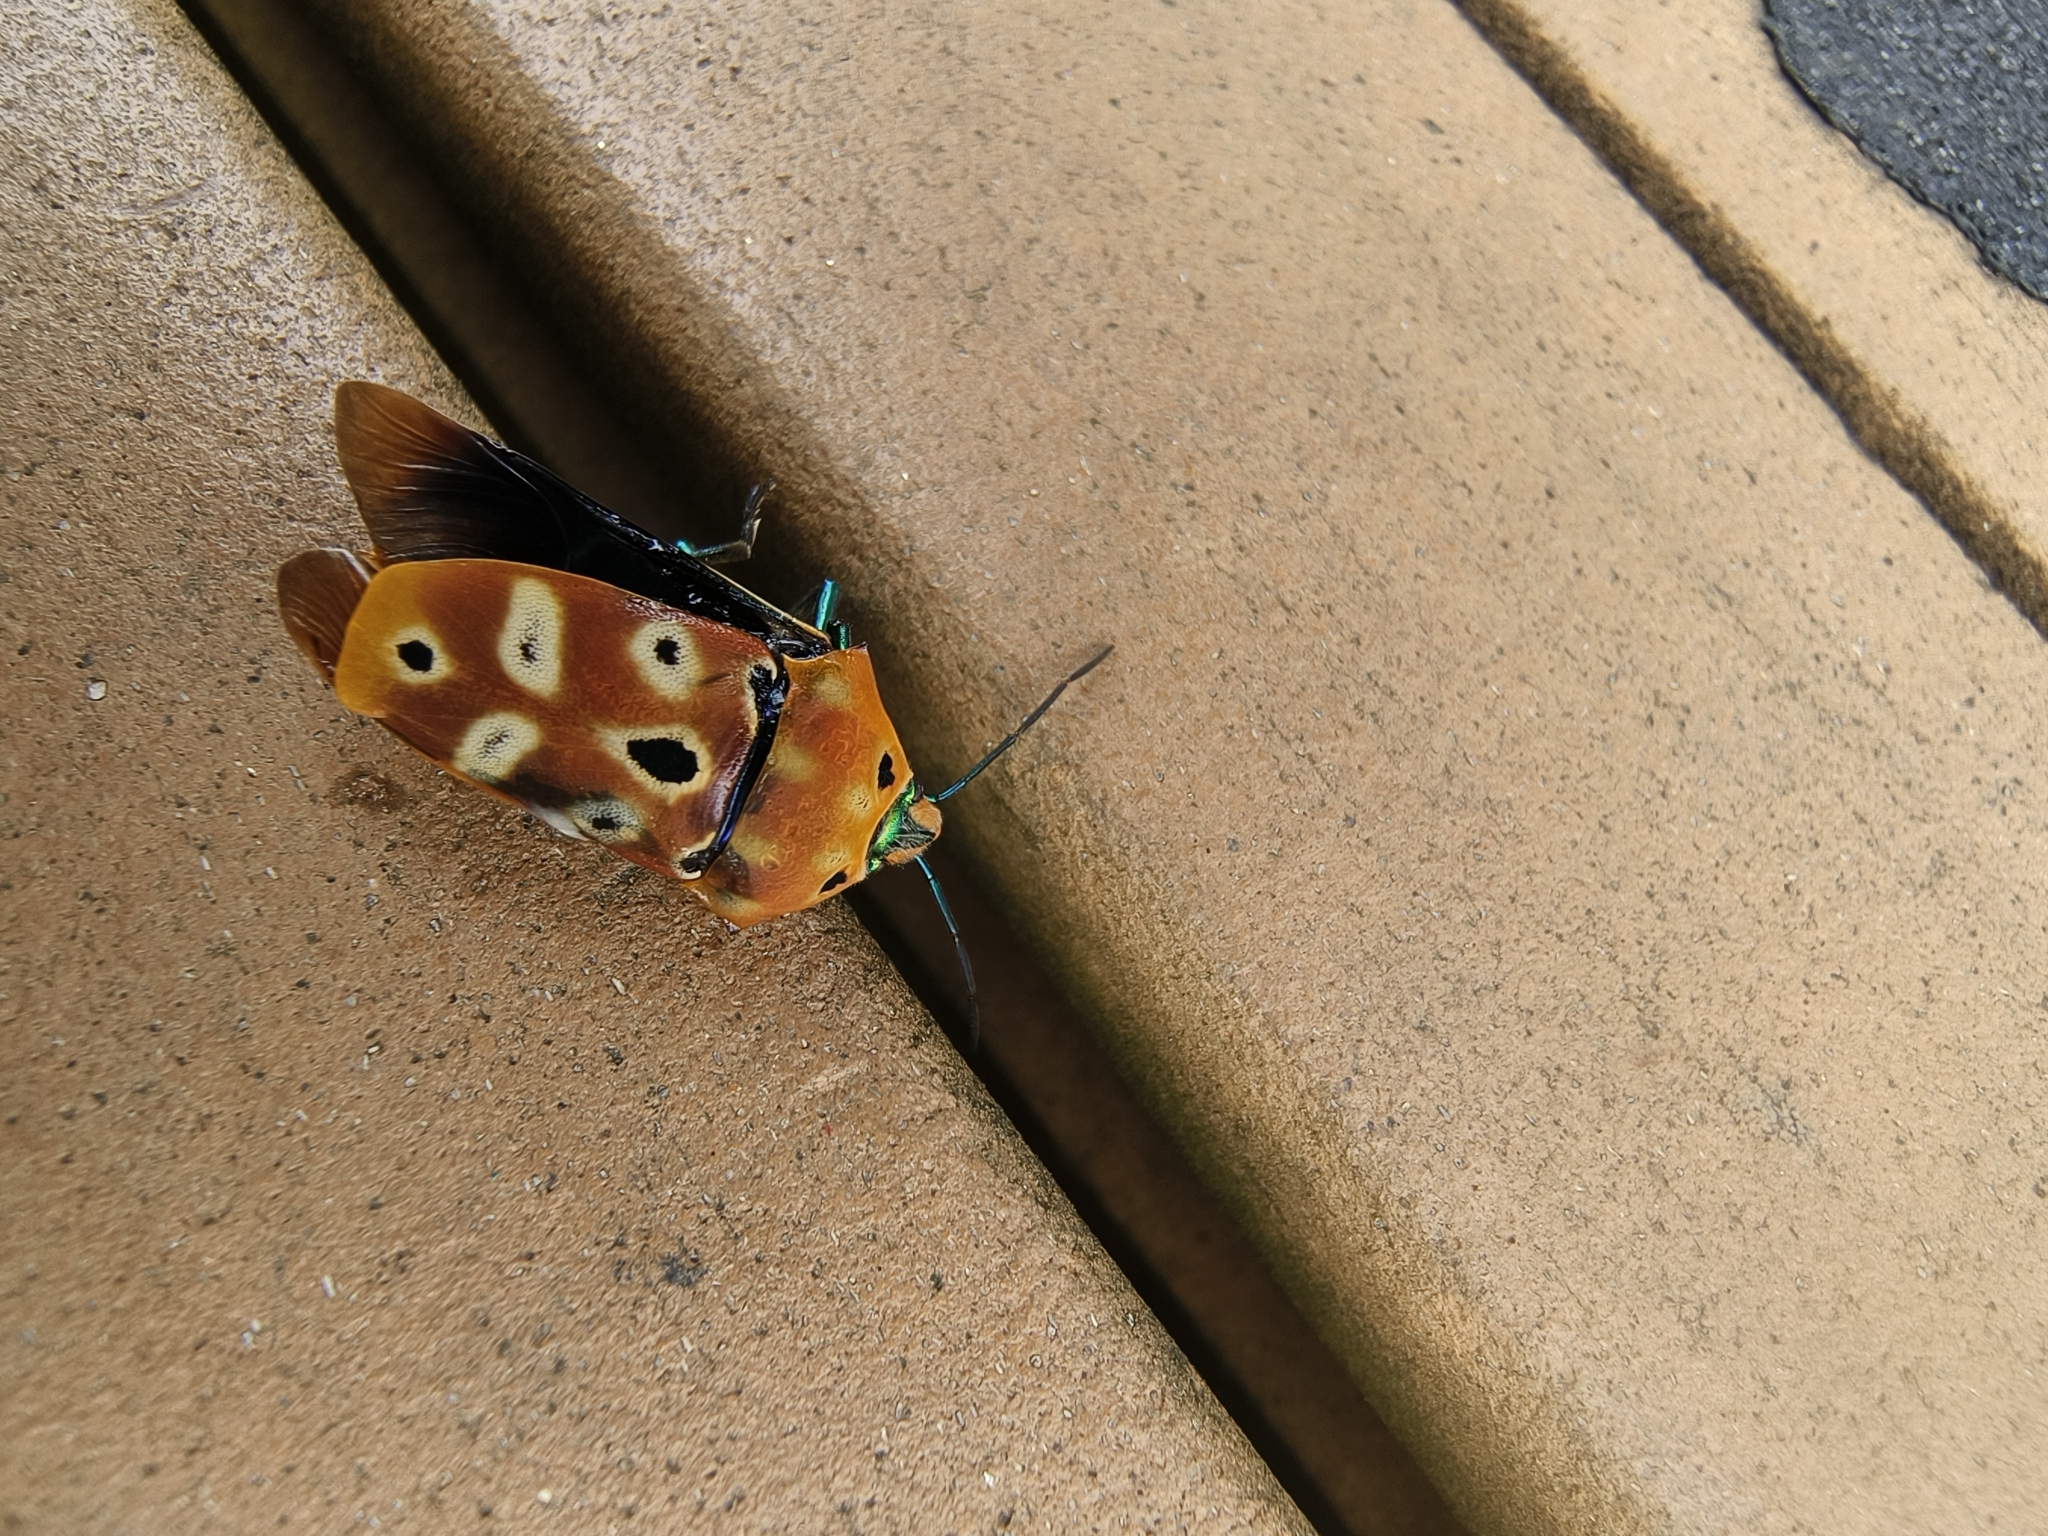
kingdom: Animalia
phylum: Arthropoda
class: Insecta
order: Hemiptera
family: Scutelleridae
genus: Cantao
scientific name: Cantao ocellatus
